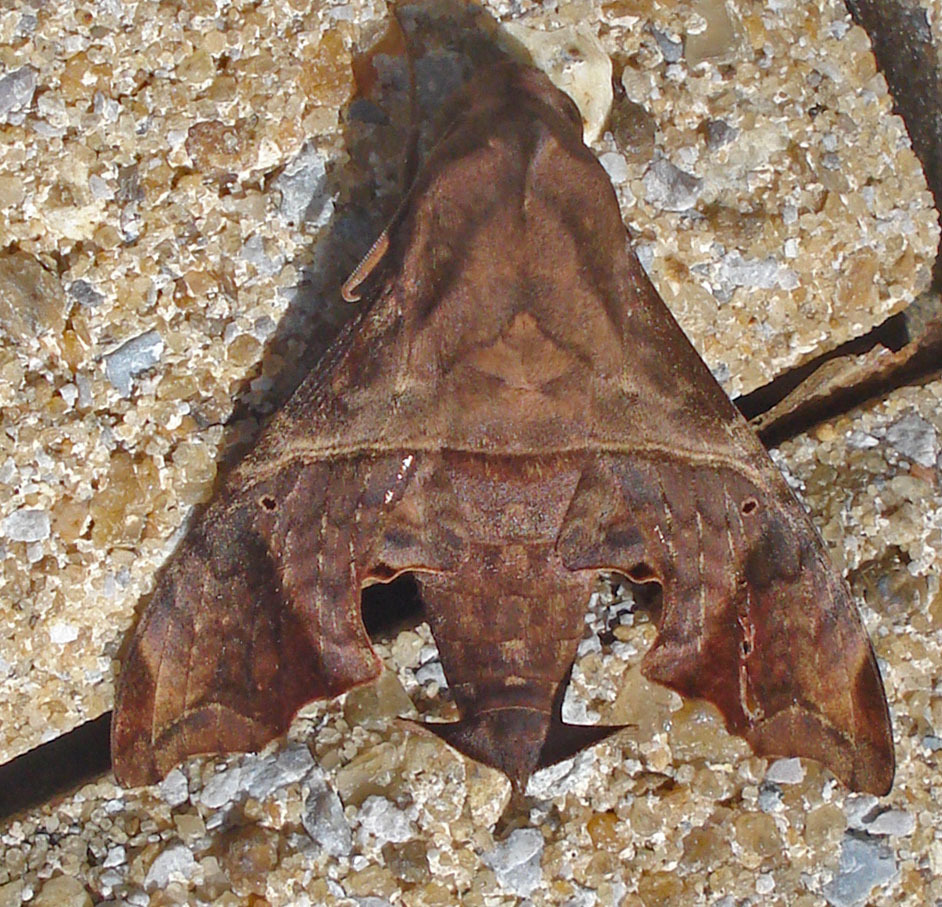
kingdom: Animalia
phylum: Arthropoda
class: Insecta
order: Lepidoptera
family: Sphingidae
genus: Enyo
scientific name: Enyo lugubris
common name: Mournful sphinx
